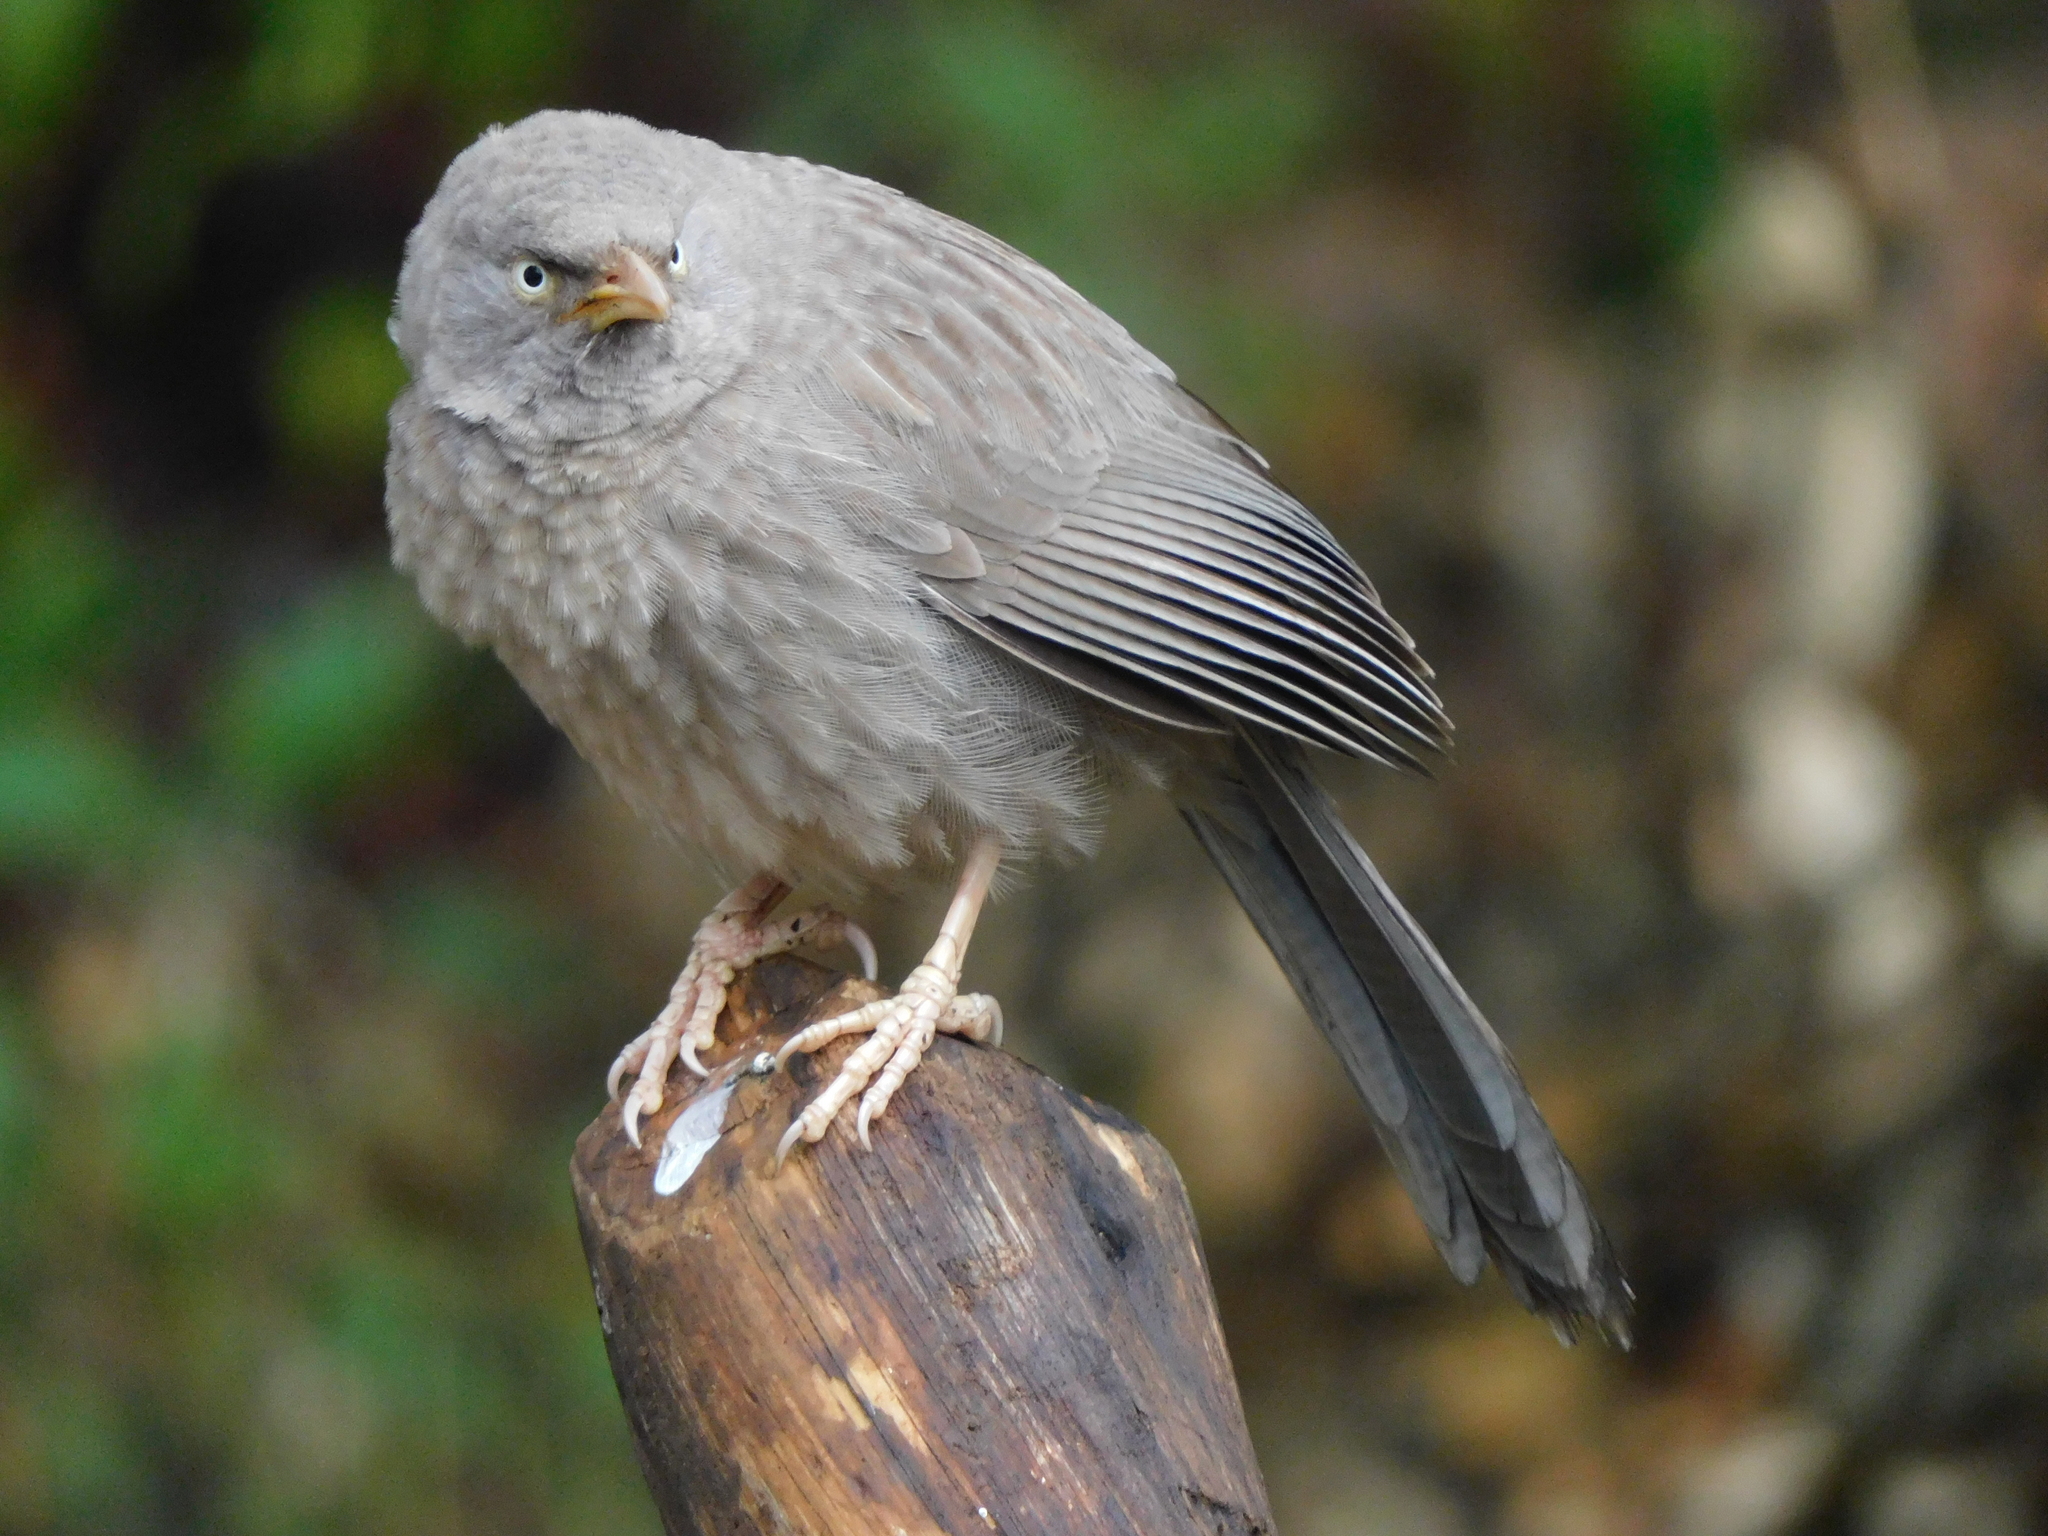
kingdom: Animalia
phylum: Chordata
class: Aves
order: Passeriformes
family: Leiothrichidae
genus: Turdoides
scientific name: Turdoides striata
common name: Jungle babbler
